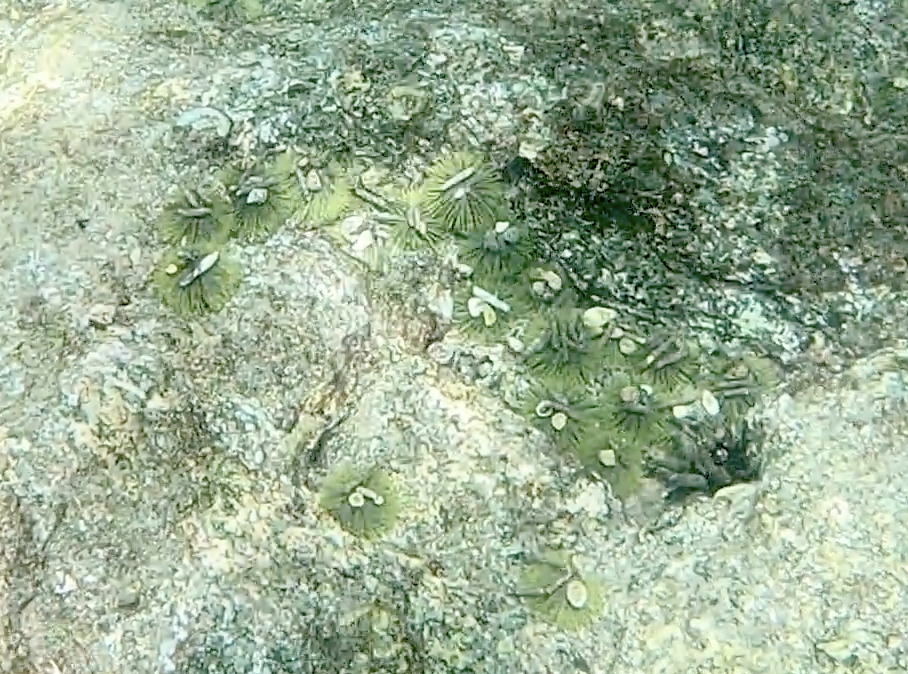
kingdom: Animalia
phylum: Echinodermata
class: Echinoidea
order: Camarodonta
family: Toxopneustidae
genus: Lytechinus
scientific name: Lytechinus semituberculatus
